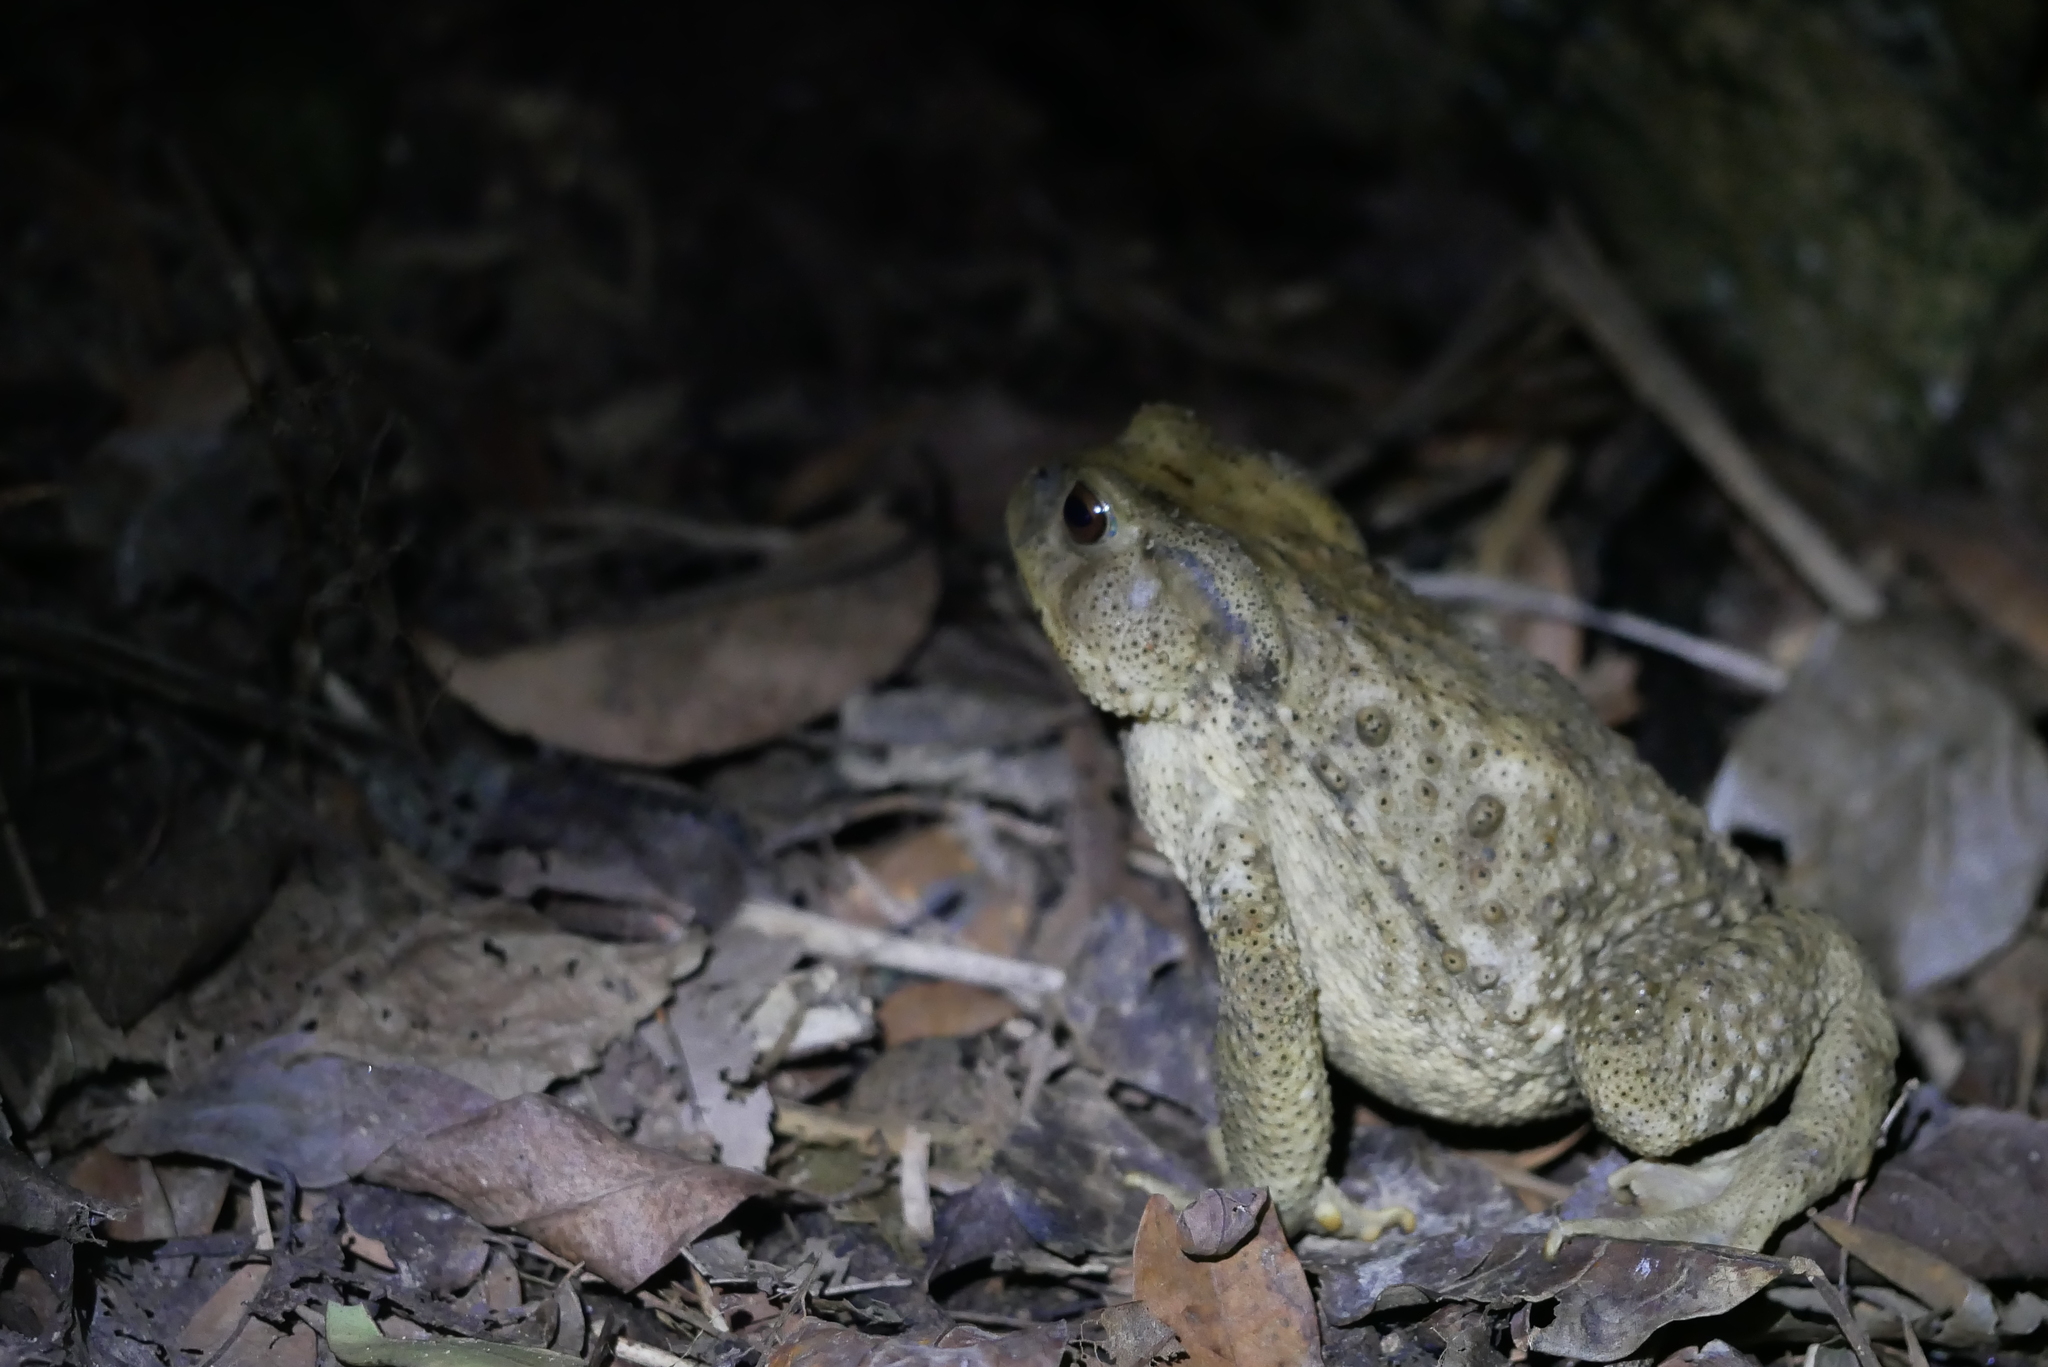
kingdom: Animalia
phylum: Chordata
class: Amphibia
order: Anura
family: Bufonidae
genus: Bufo
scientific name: Bufo bankorensis
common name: Bankor toad
